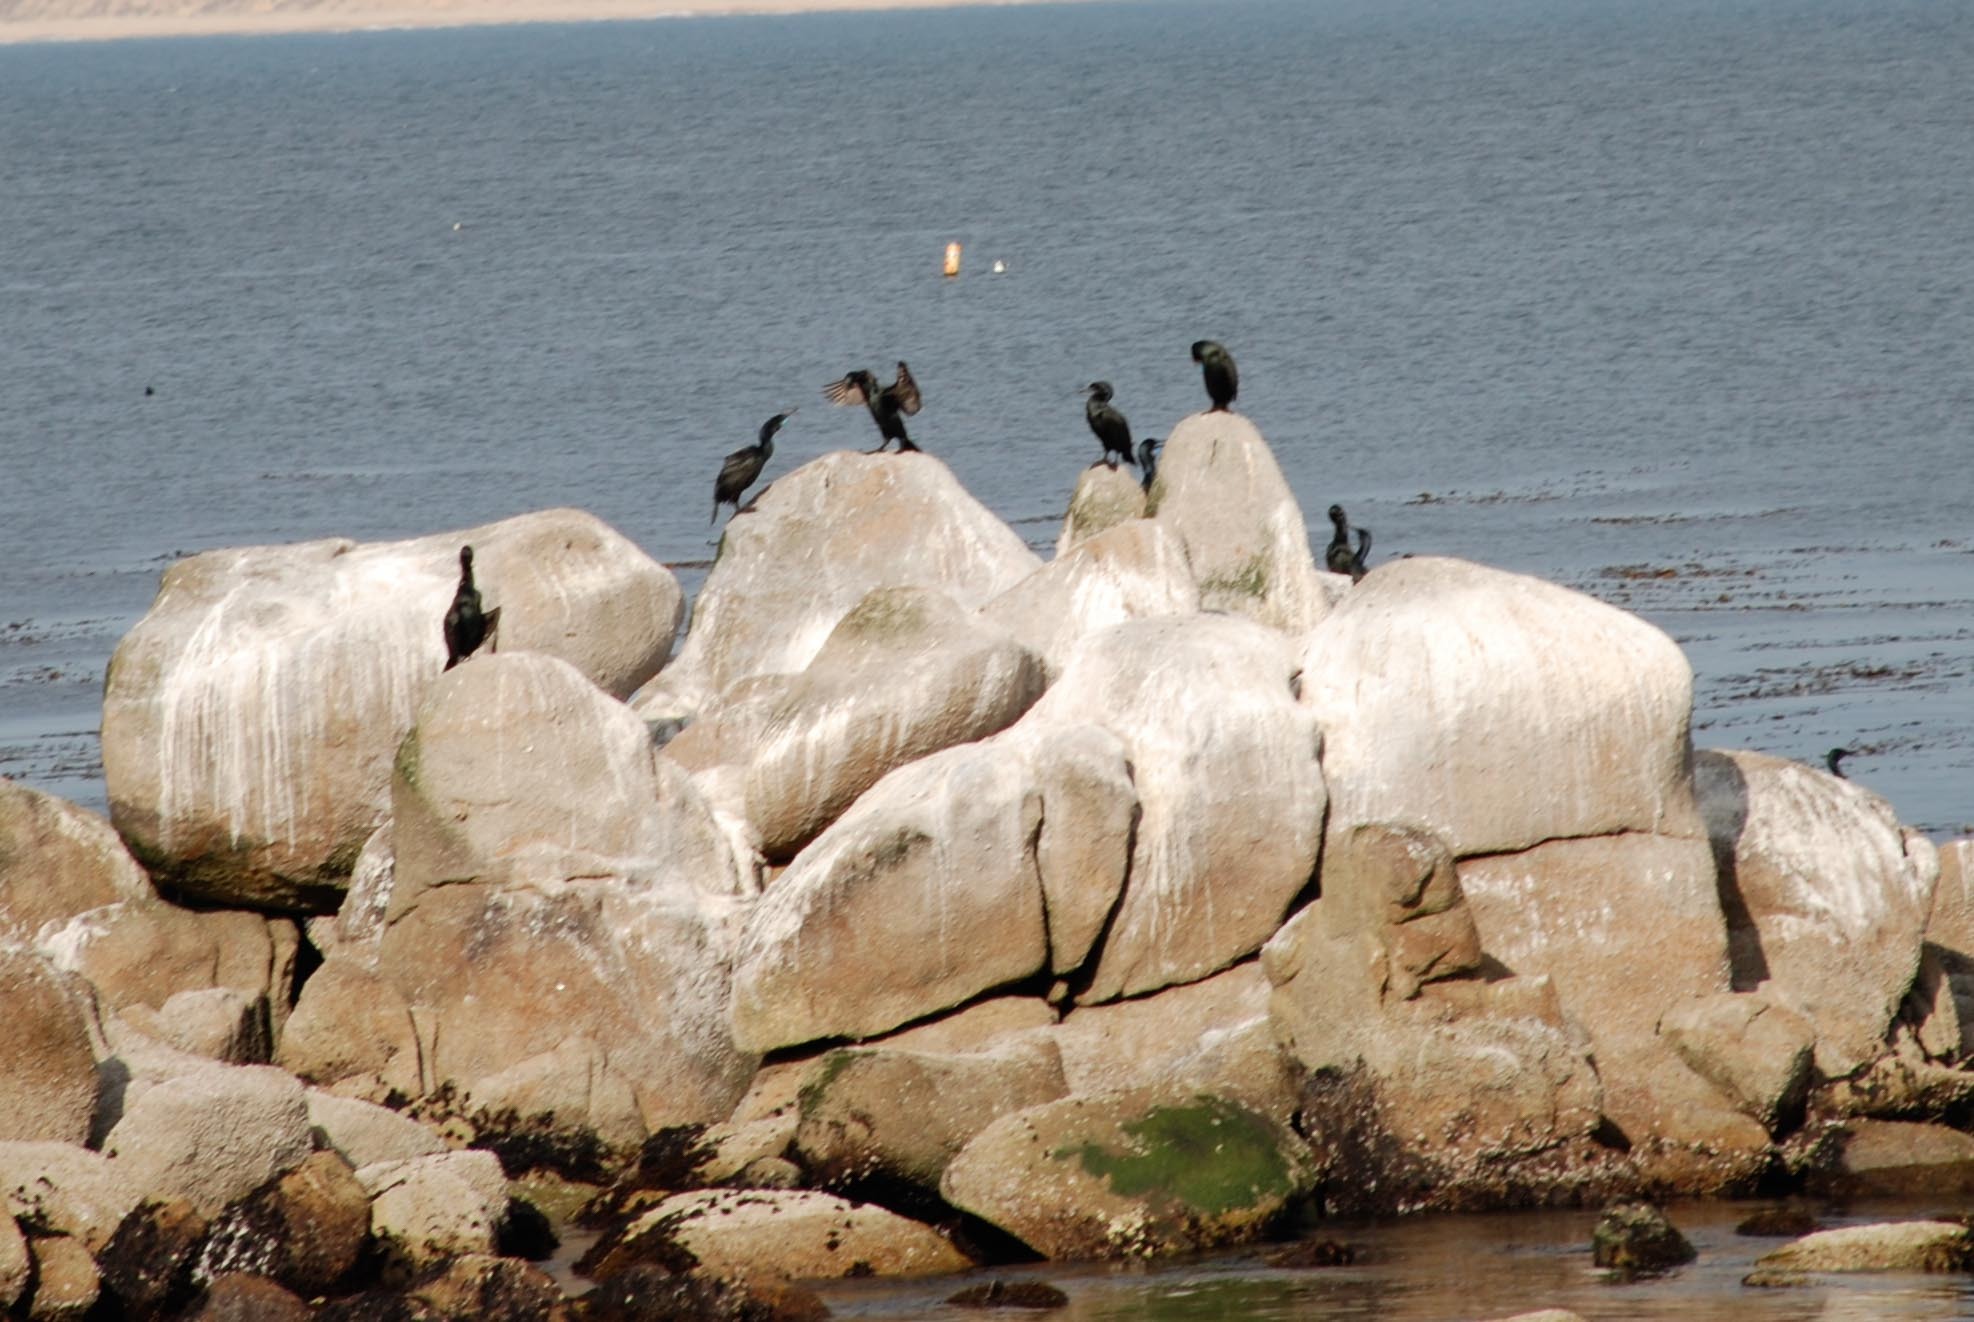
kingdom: Animalia
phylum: Chordata
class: Aves
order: Suliformes
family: Phalacrocoracidae
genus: Urile
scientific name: Urile penicillatus
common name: Brandt's cormorant
